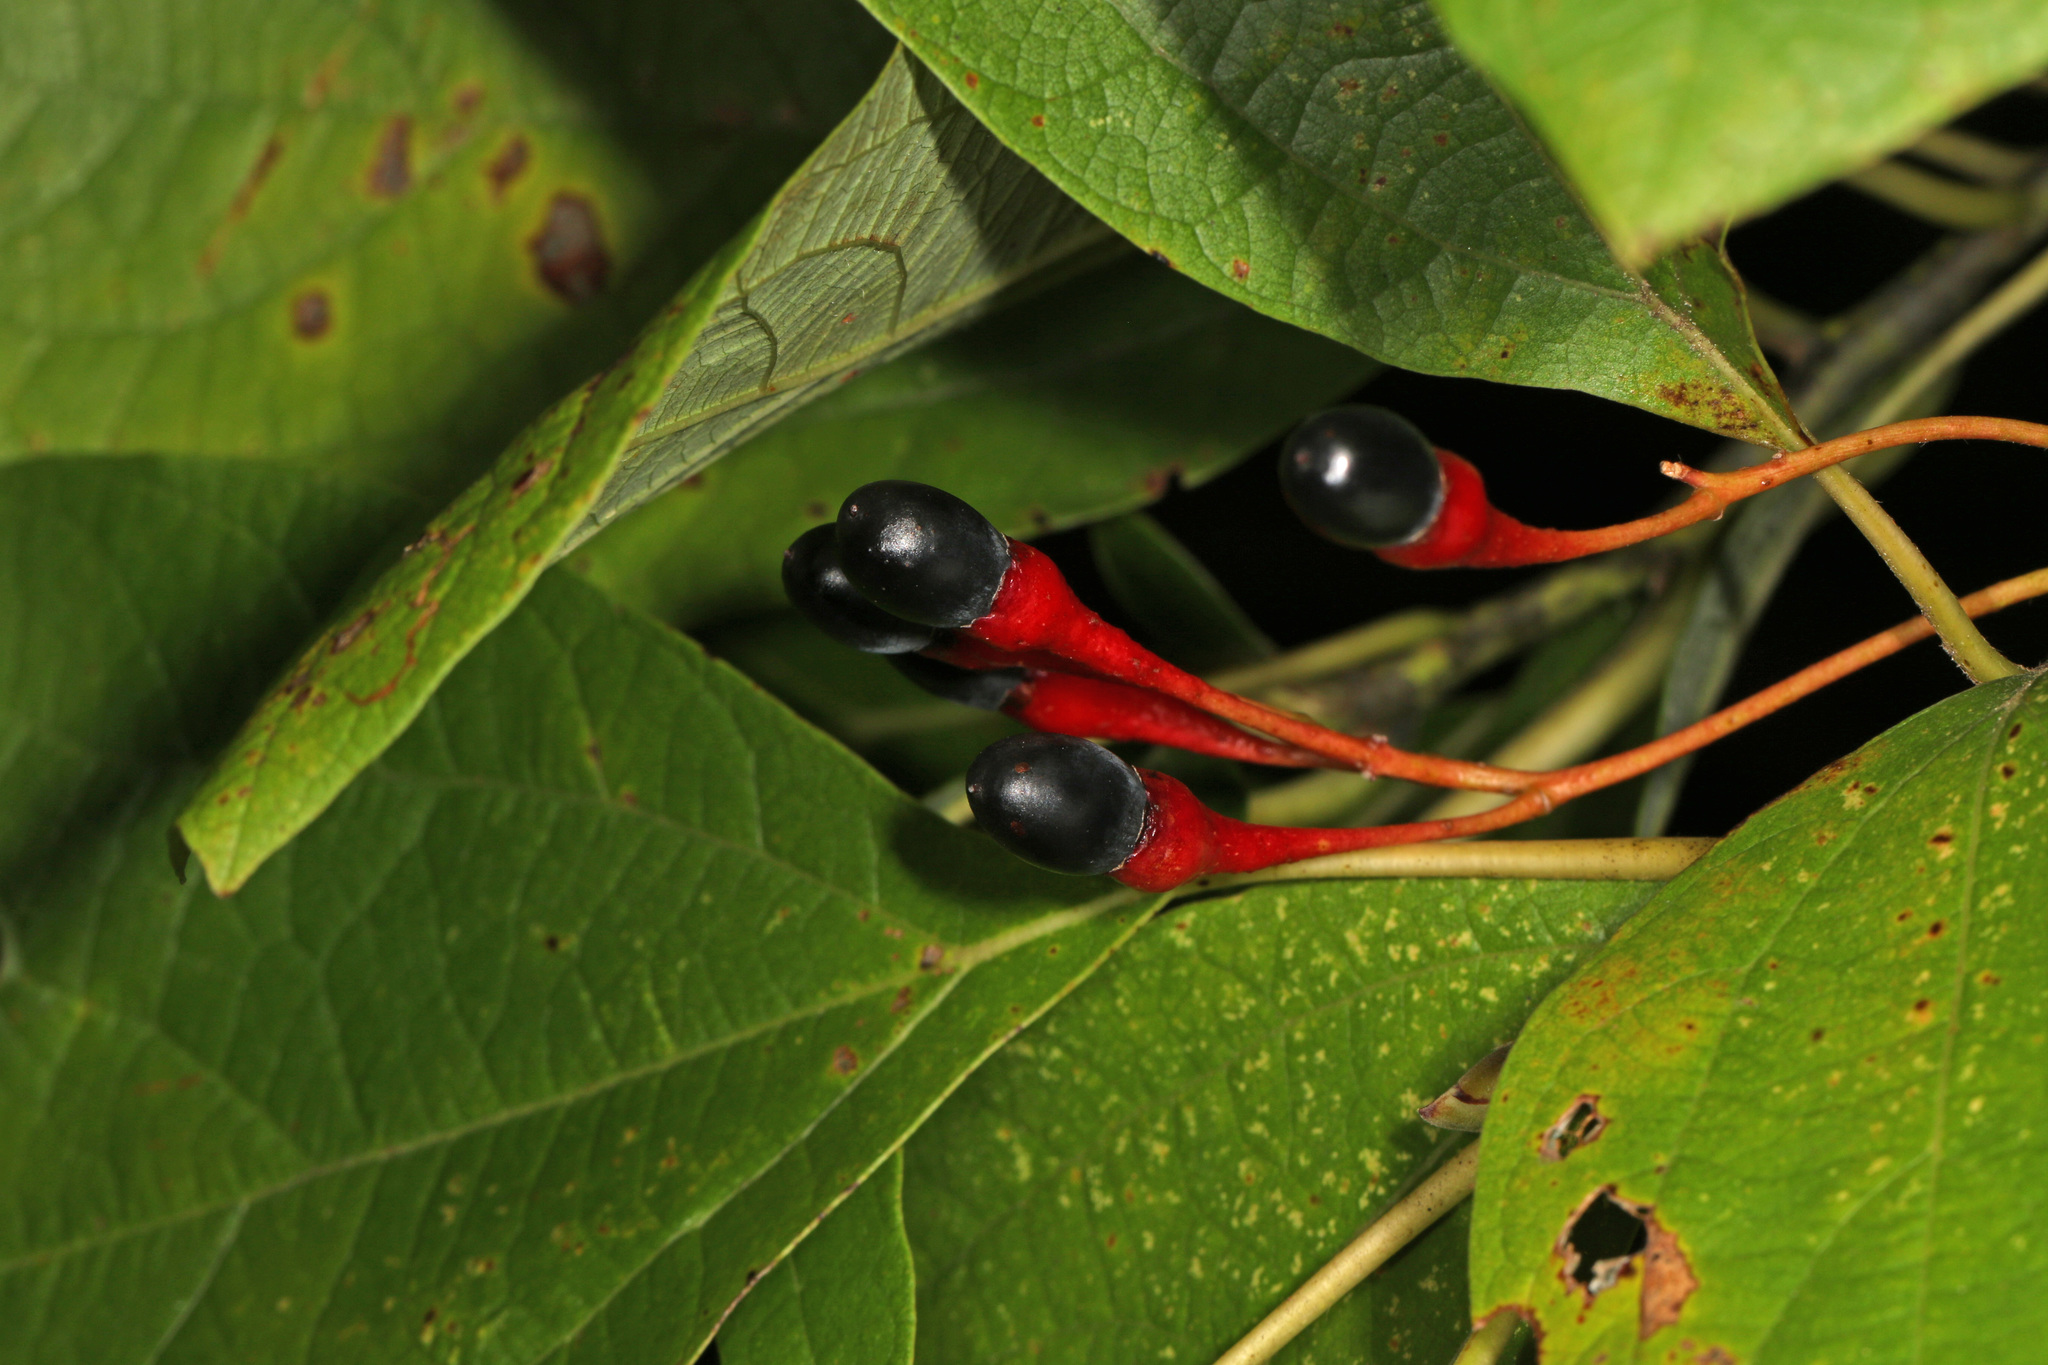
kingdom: Plantae
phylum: Tracheophyta
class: Magnoliopsida
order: Laurales
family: Lauraceae
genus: Sassafras
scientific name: Sassafras albidum
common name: Sassafras
